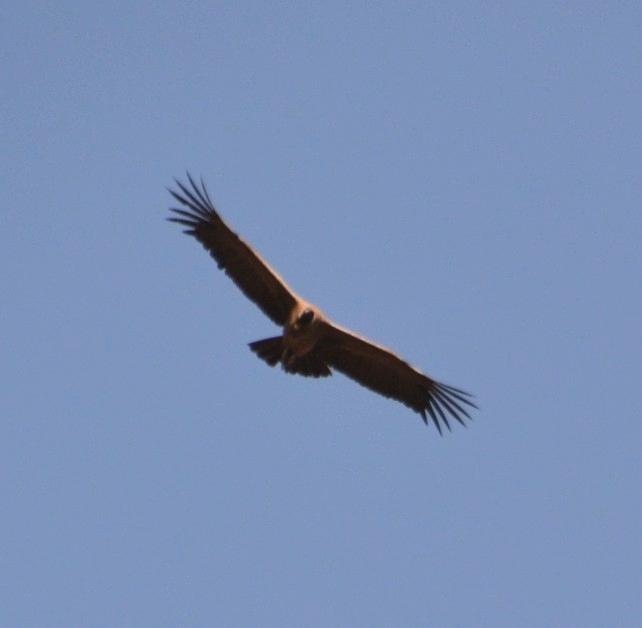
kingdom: Animalia
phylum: Chordata
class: Aves
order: Accipitriformes
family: Cathartidae
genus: Vultur
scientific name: Vultur gryphus
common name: Andean condor
